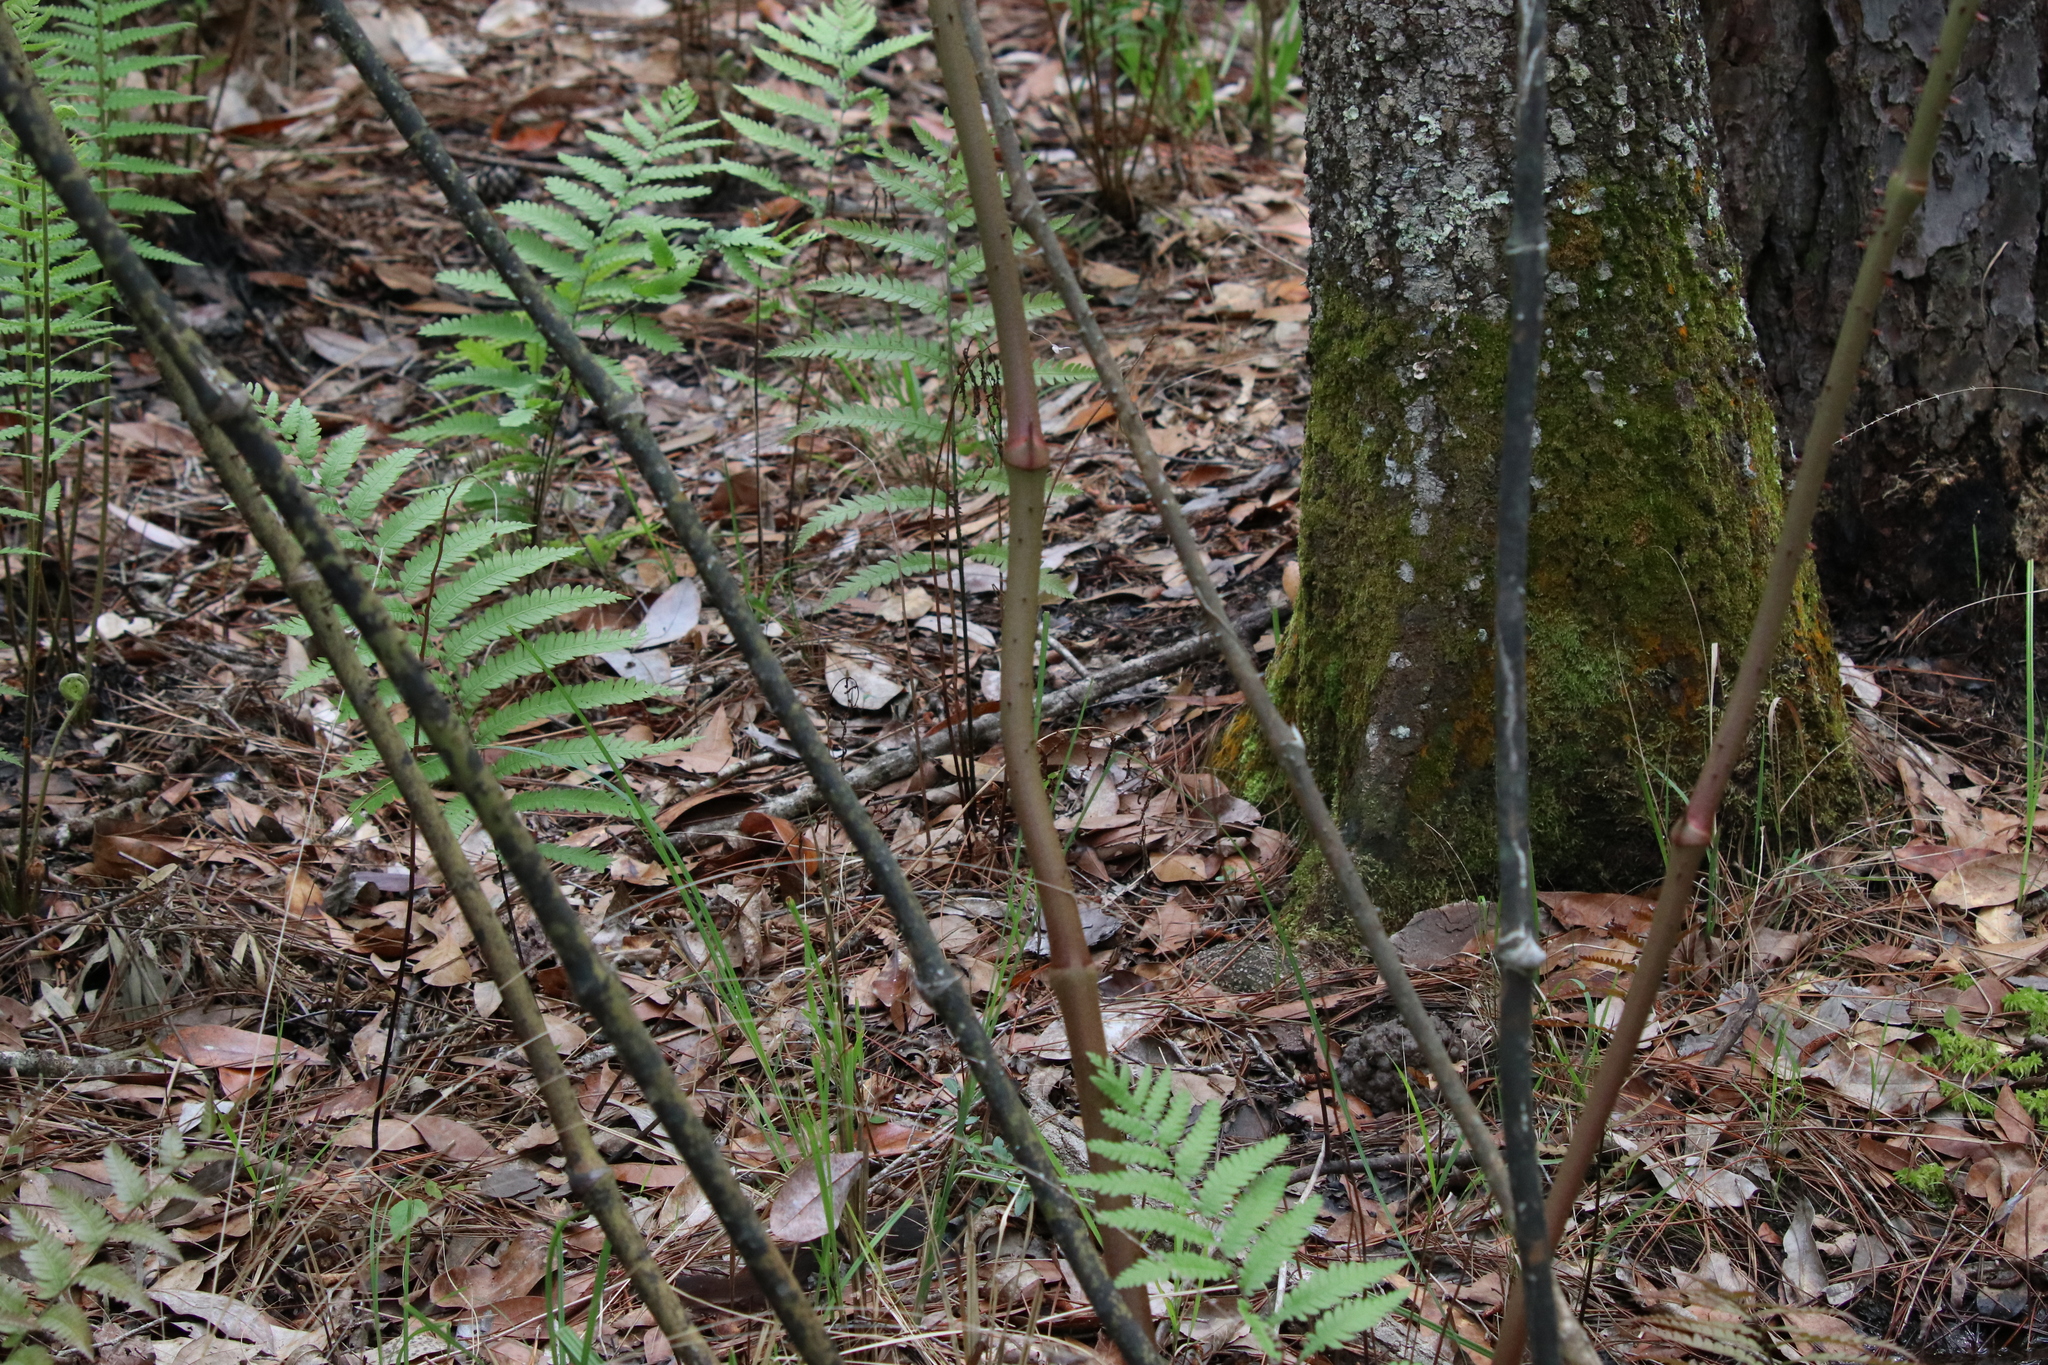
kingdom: Plantae
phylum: Tracheophyta
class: Liliopsida
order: Liliales
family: Smilacaceae
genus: Smilax
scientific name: Smilax maritima
